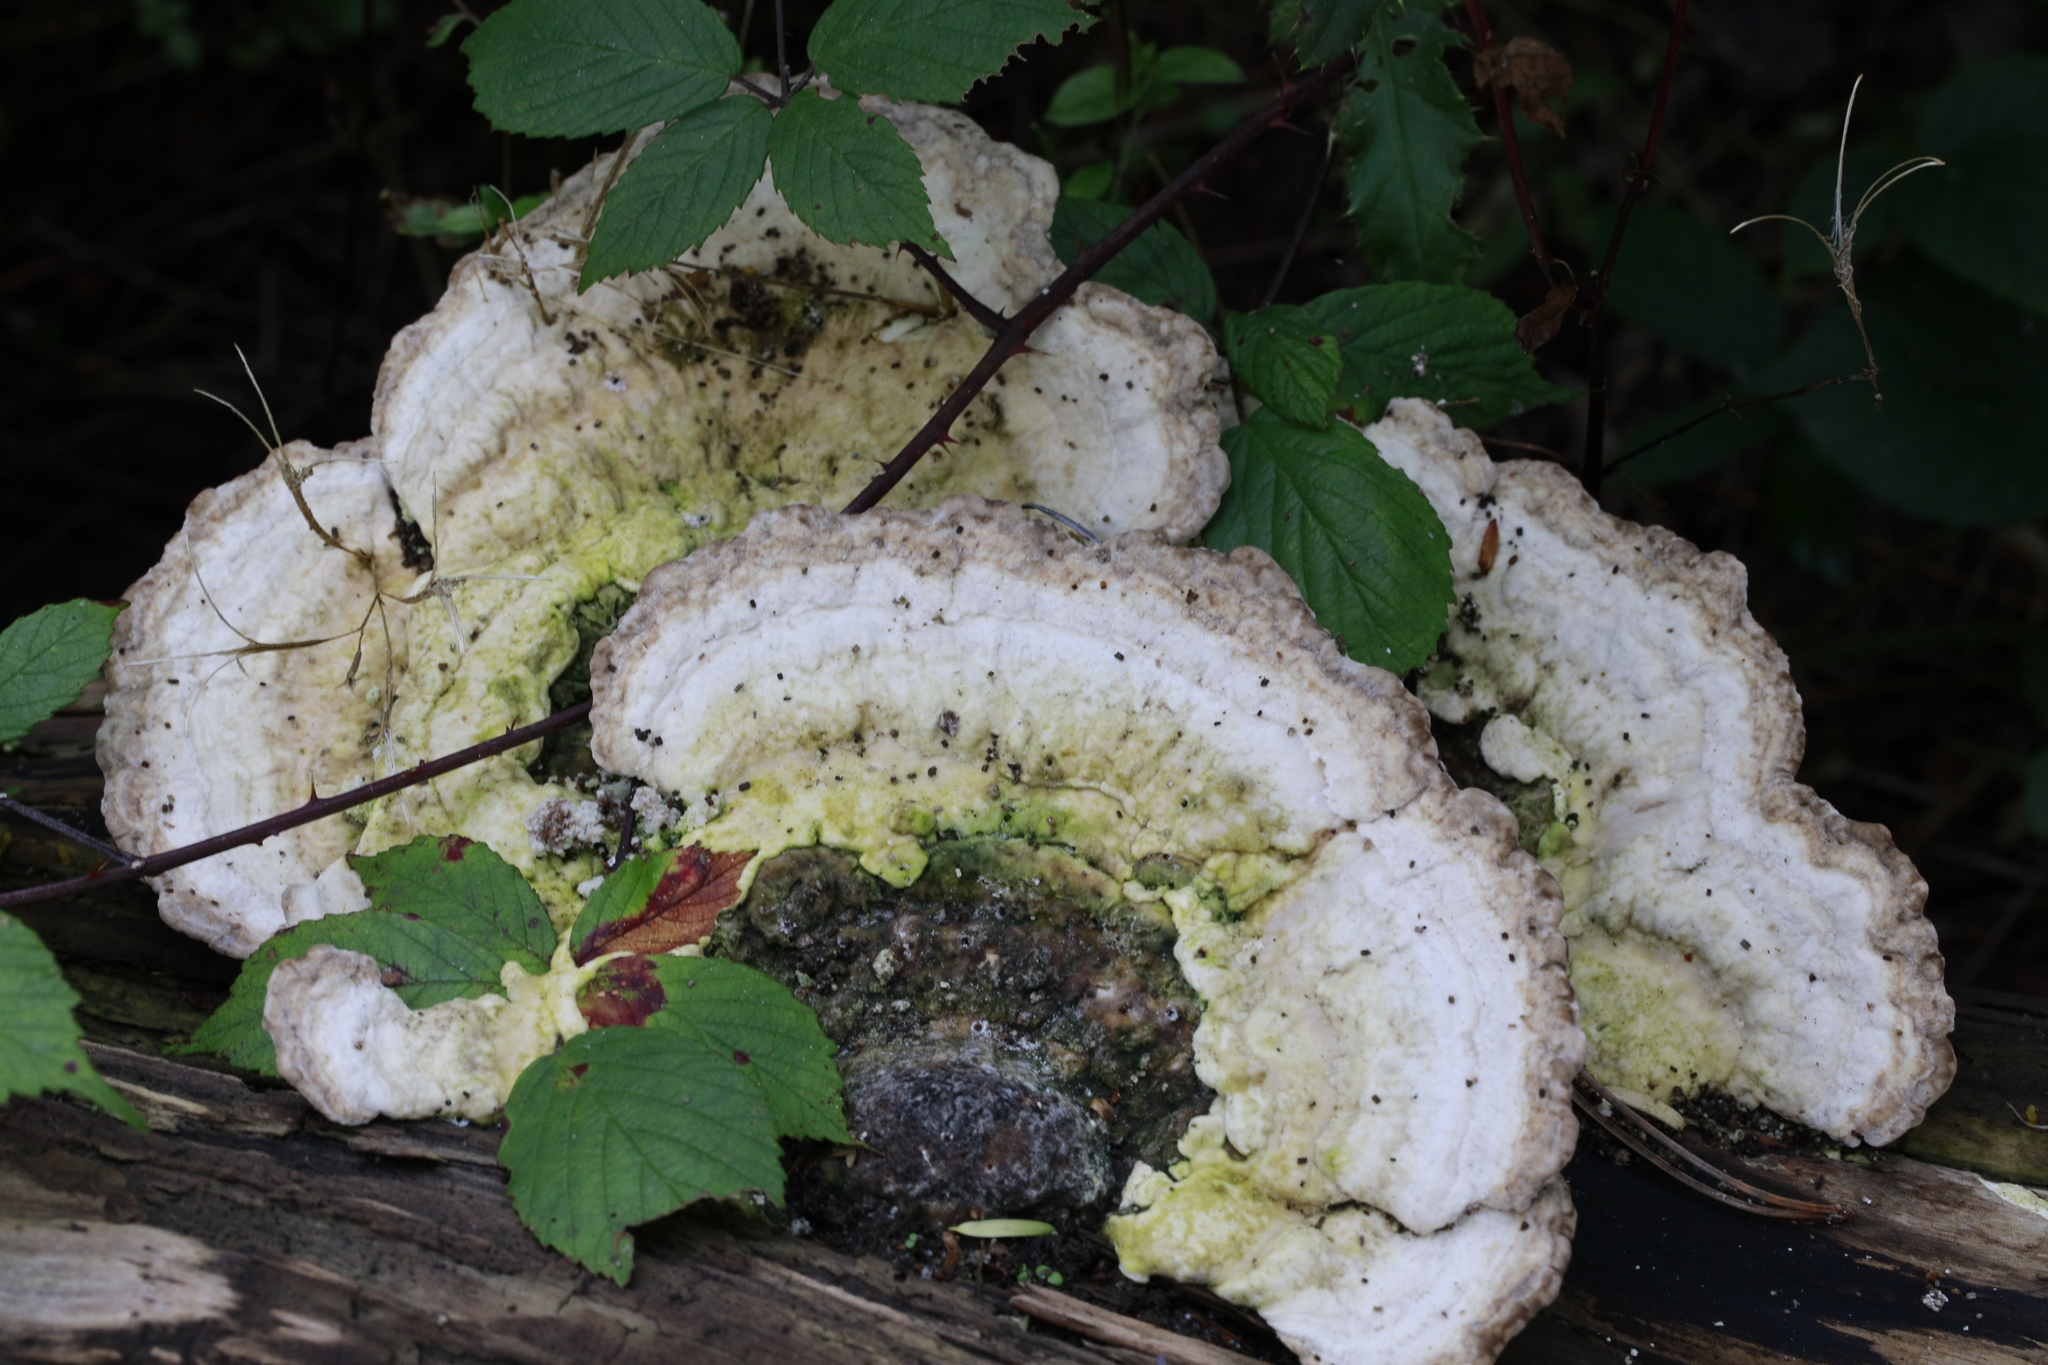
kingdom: Fungi
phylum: Basidiomycota
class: Agaricomycetes
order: Polyporales
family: Polyporaceae
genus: Trametes
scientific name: Trametes gibbosa
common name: Lumpy bracket
